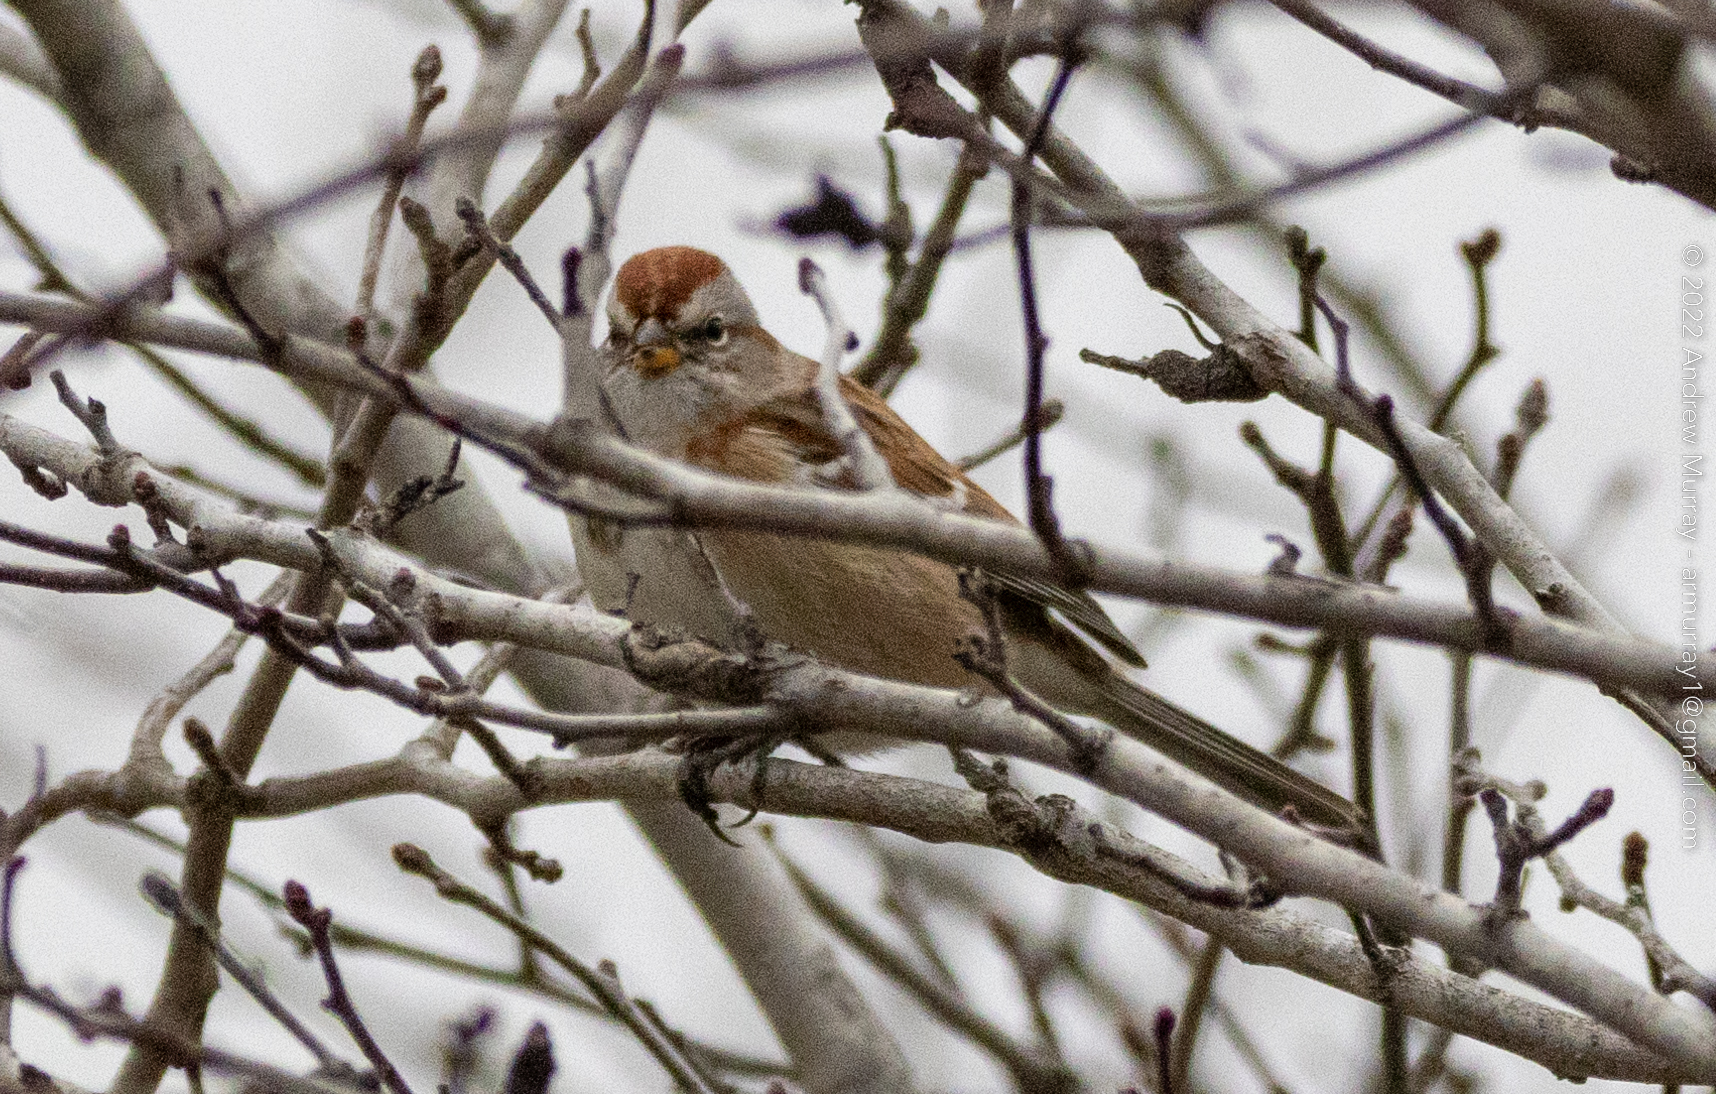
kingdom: Animalia
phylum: Chordata
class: Aves
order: Passeriformes
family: Passerellidae
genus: Spizelloides
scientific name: Spizelloides arborea
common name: American tree sparrow
